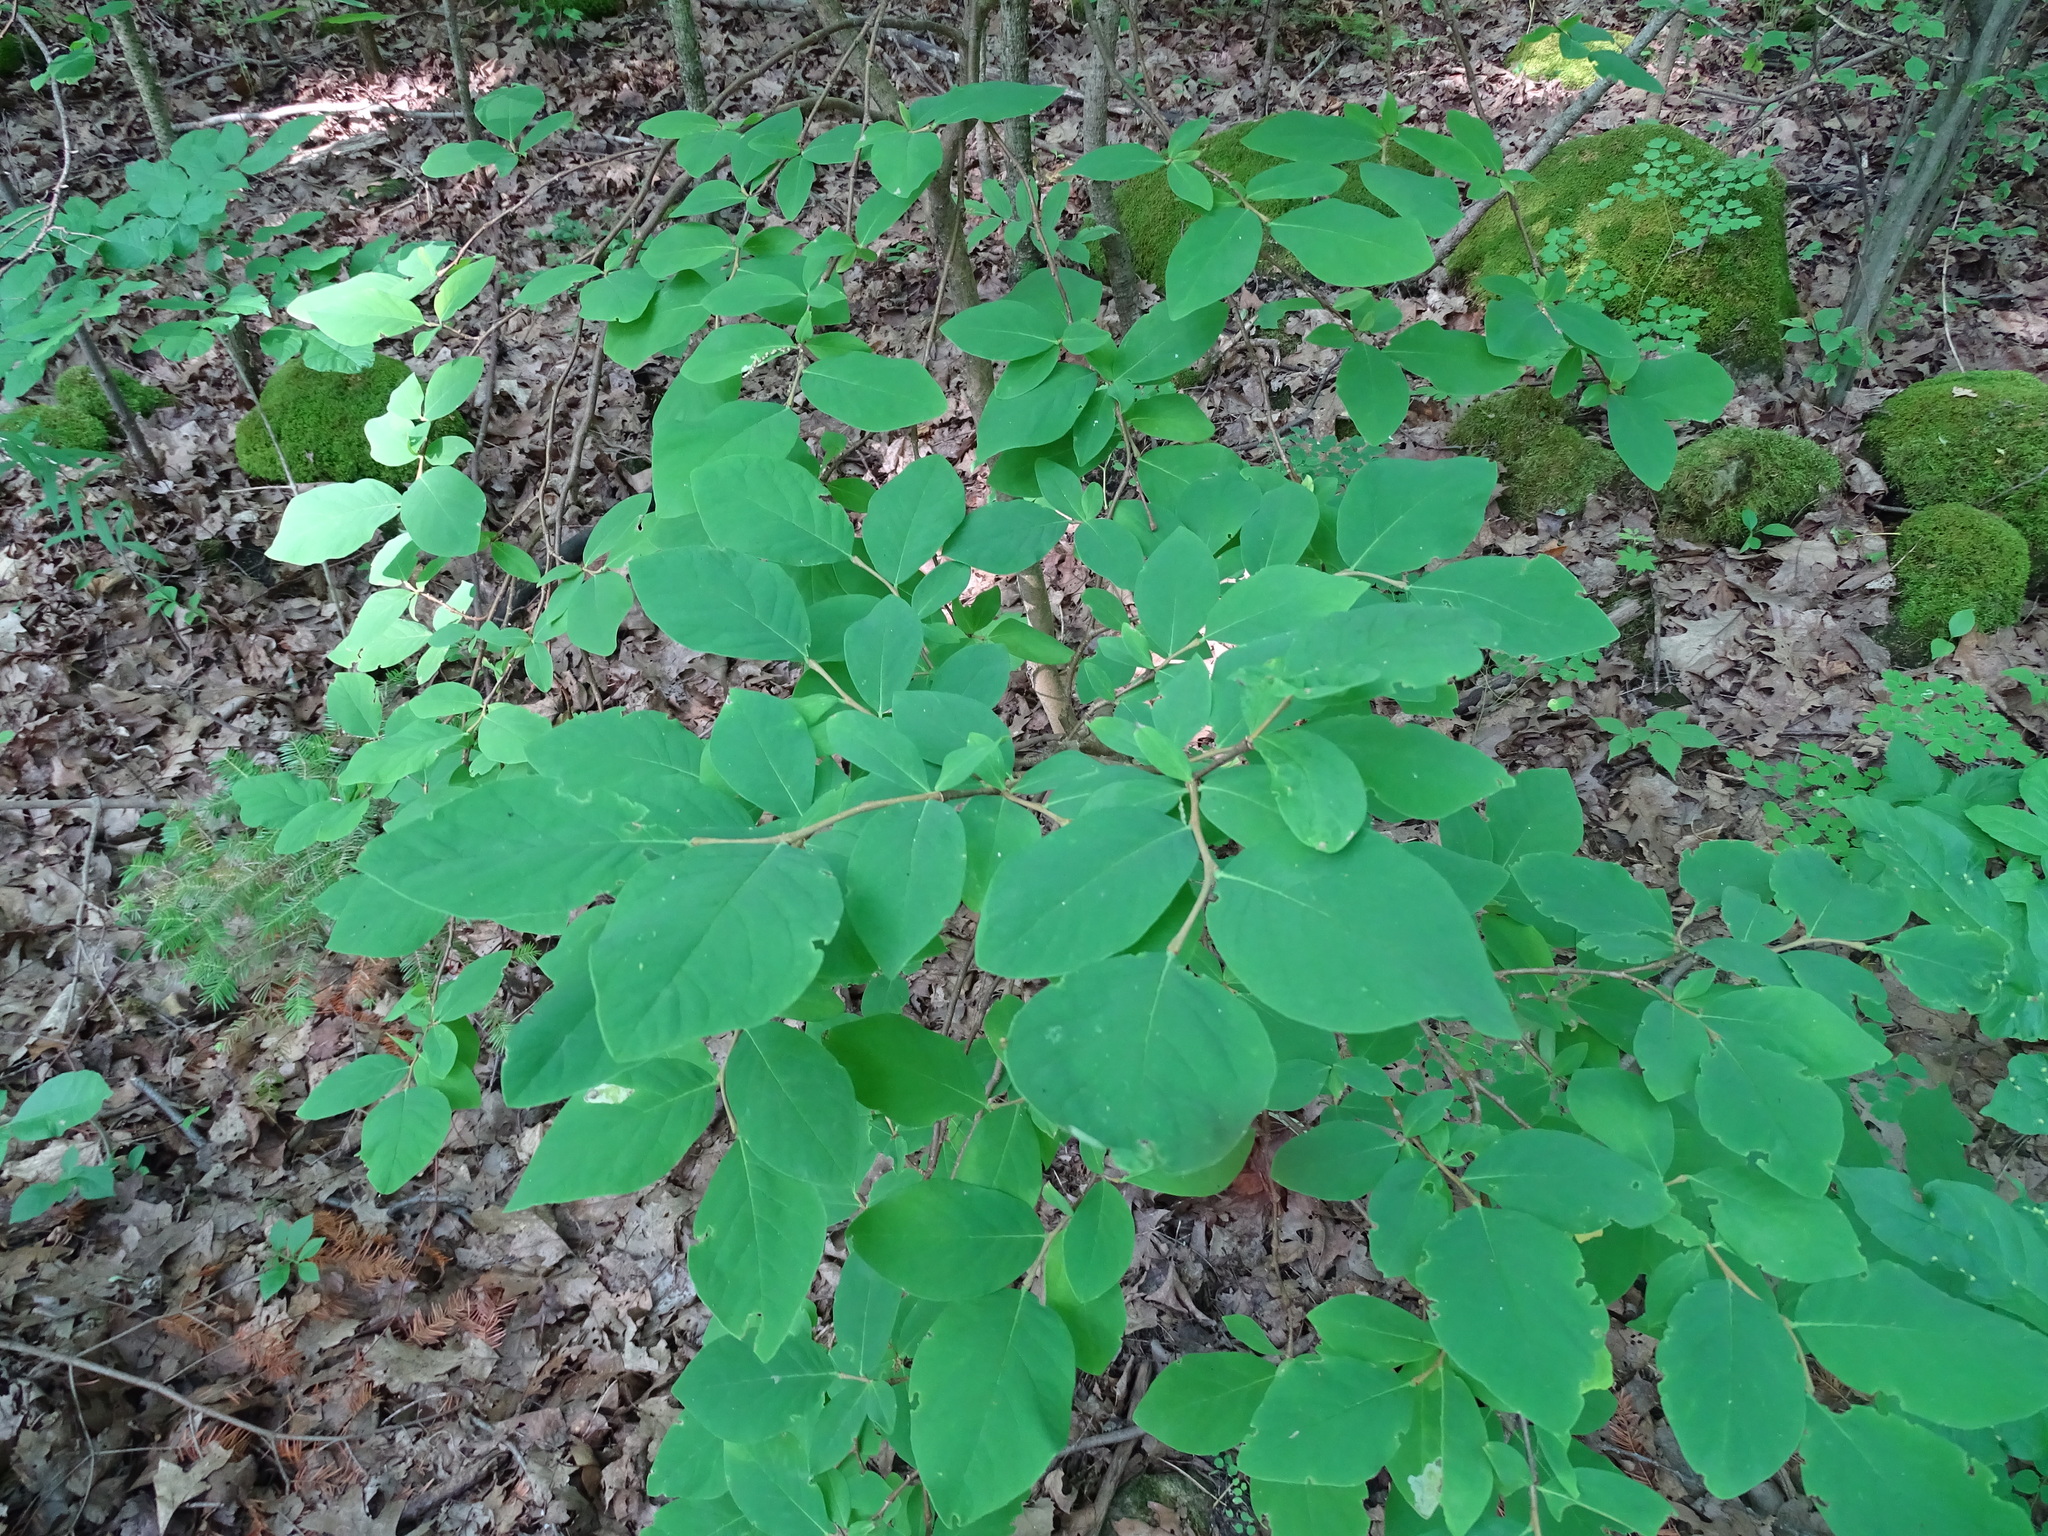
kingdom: Plantae
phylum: Tracheophyta
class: Magnoliopsida
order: Malvales
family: Thymelaeaceae
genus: Dirca
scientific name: Dirca palustris
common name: Leatherwood
